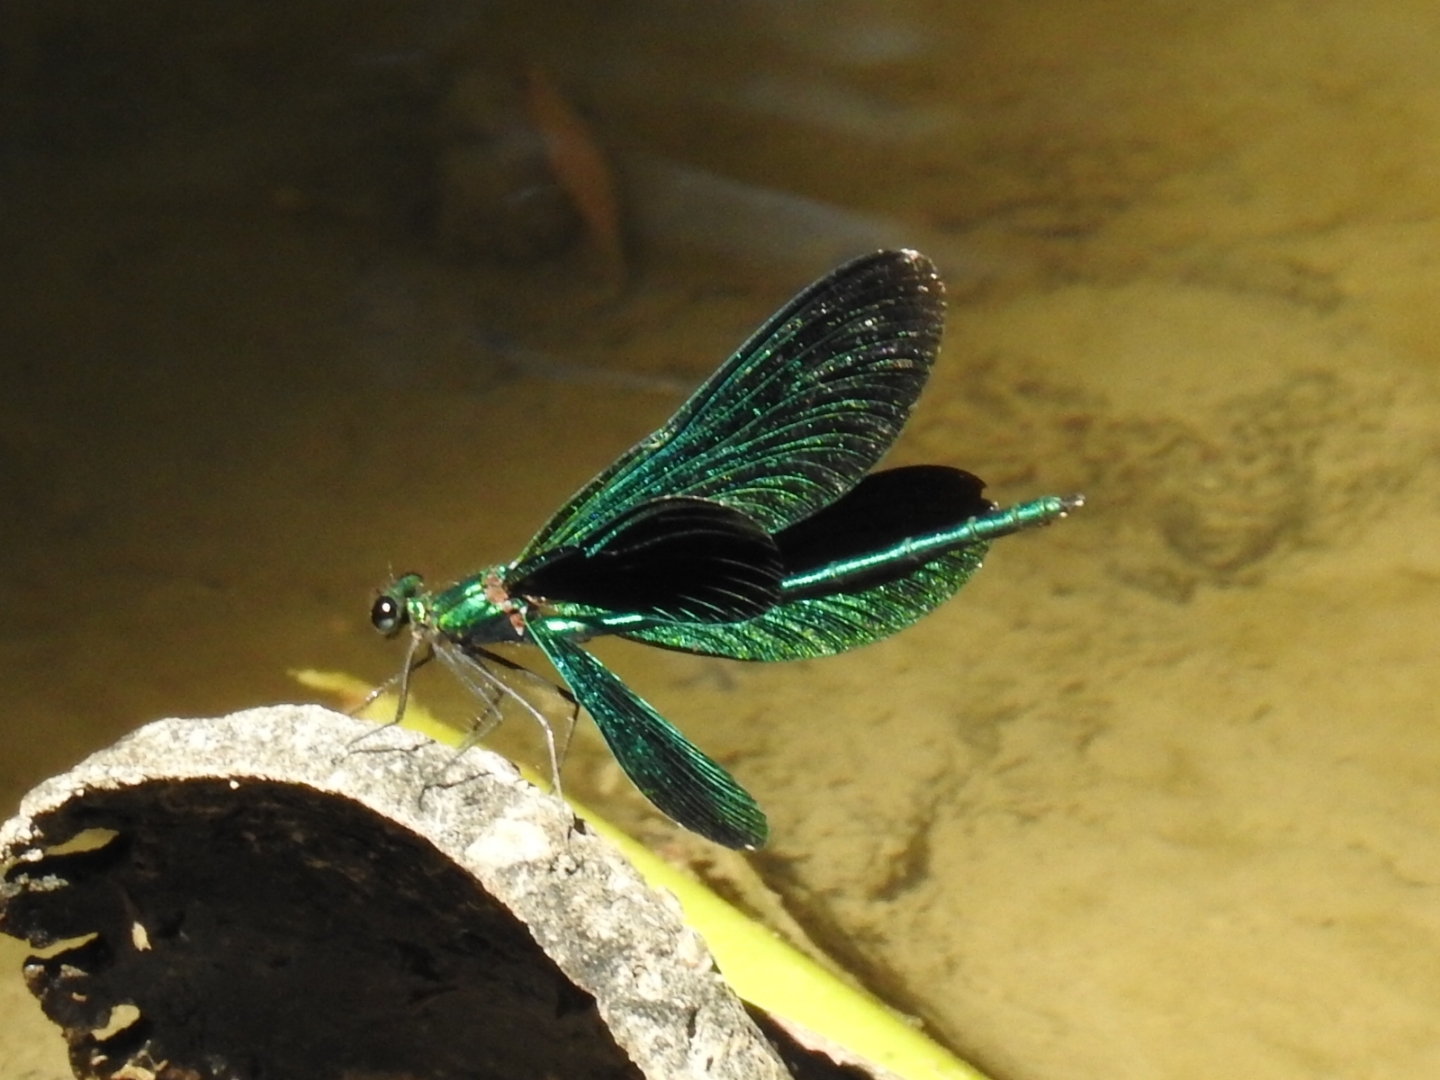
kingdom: Animalia
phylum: Arthropoda
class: Insecta
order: Odonata
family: Calopterygidae
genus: Calopteryx
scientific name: Calopteryx virgo
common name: Beautiful demoiselle
